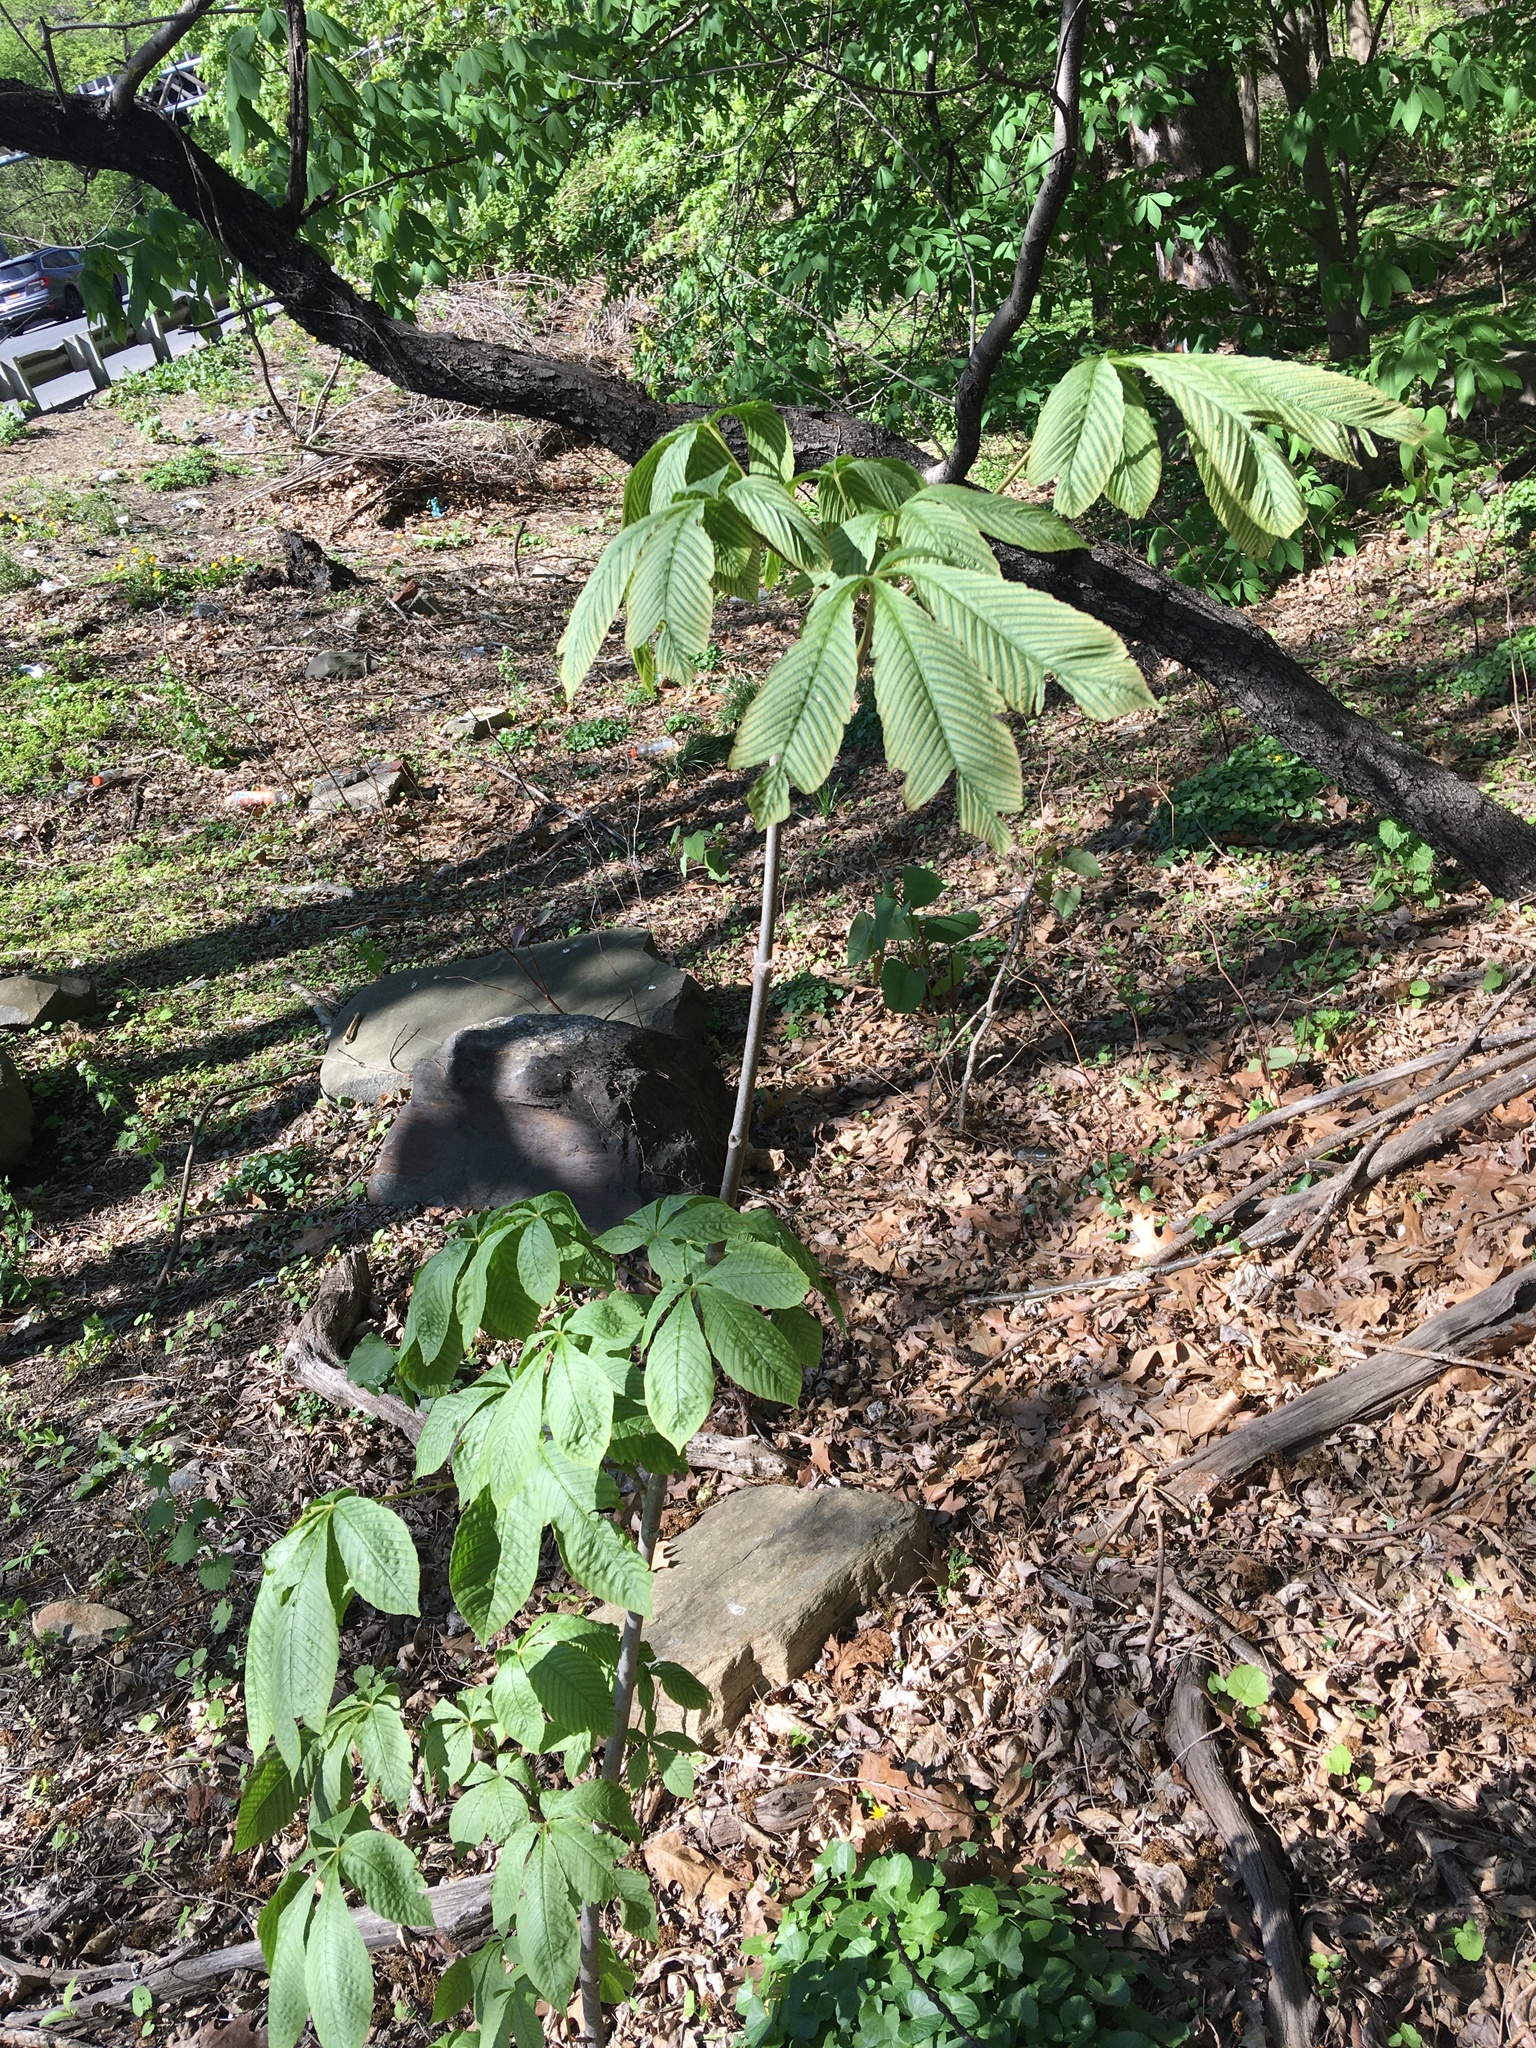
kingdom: Plantae
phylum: Tracheophyta
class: Magnoliopsida
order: Sapindales
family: Sapindaceae
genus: Aesculus
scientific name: Aesculus flava
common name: Yellow buckeye
